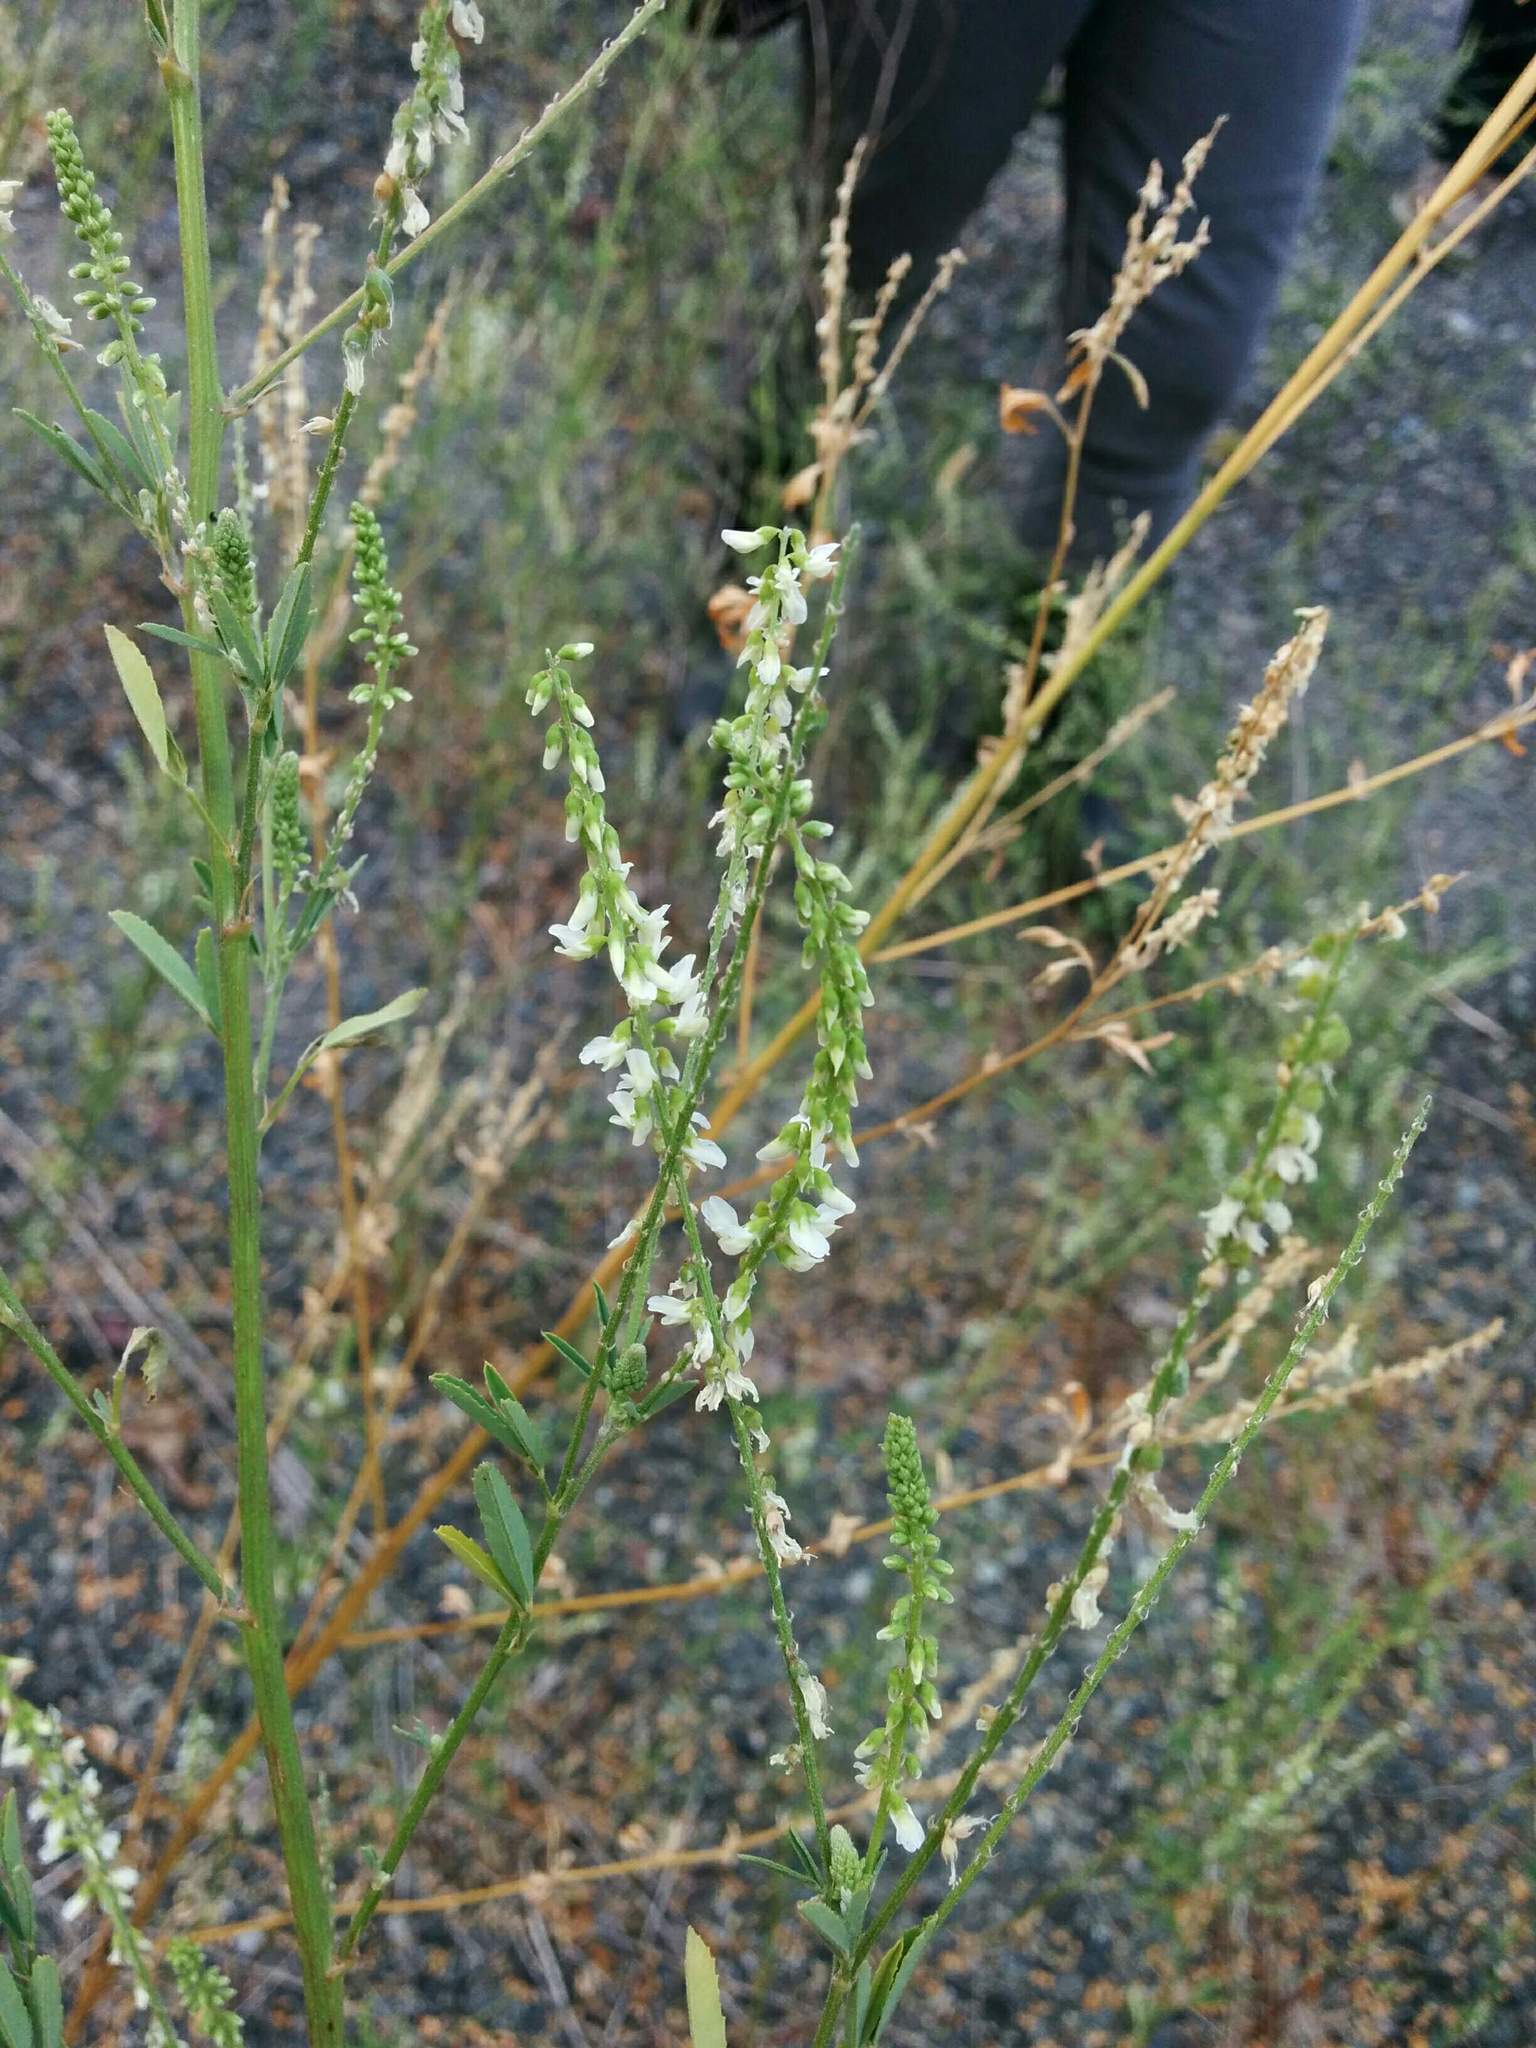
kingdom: Plantae
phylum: Tracheophyta
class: Magnoliopsida
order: Fabales
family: Fabaceae
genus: Melilotus
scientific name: Melilotus albus
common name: White melilot
